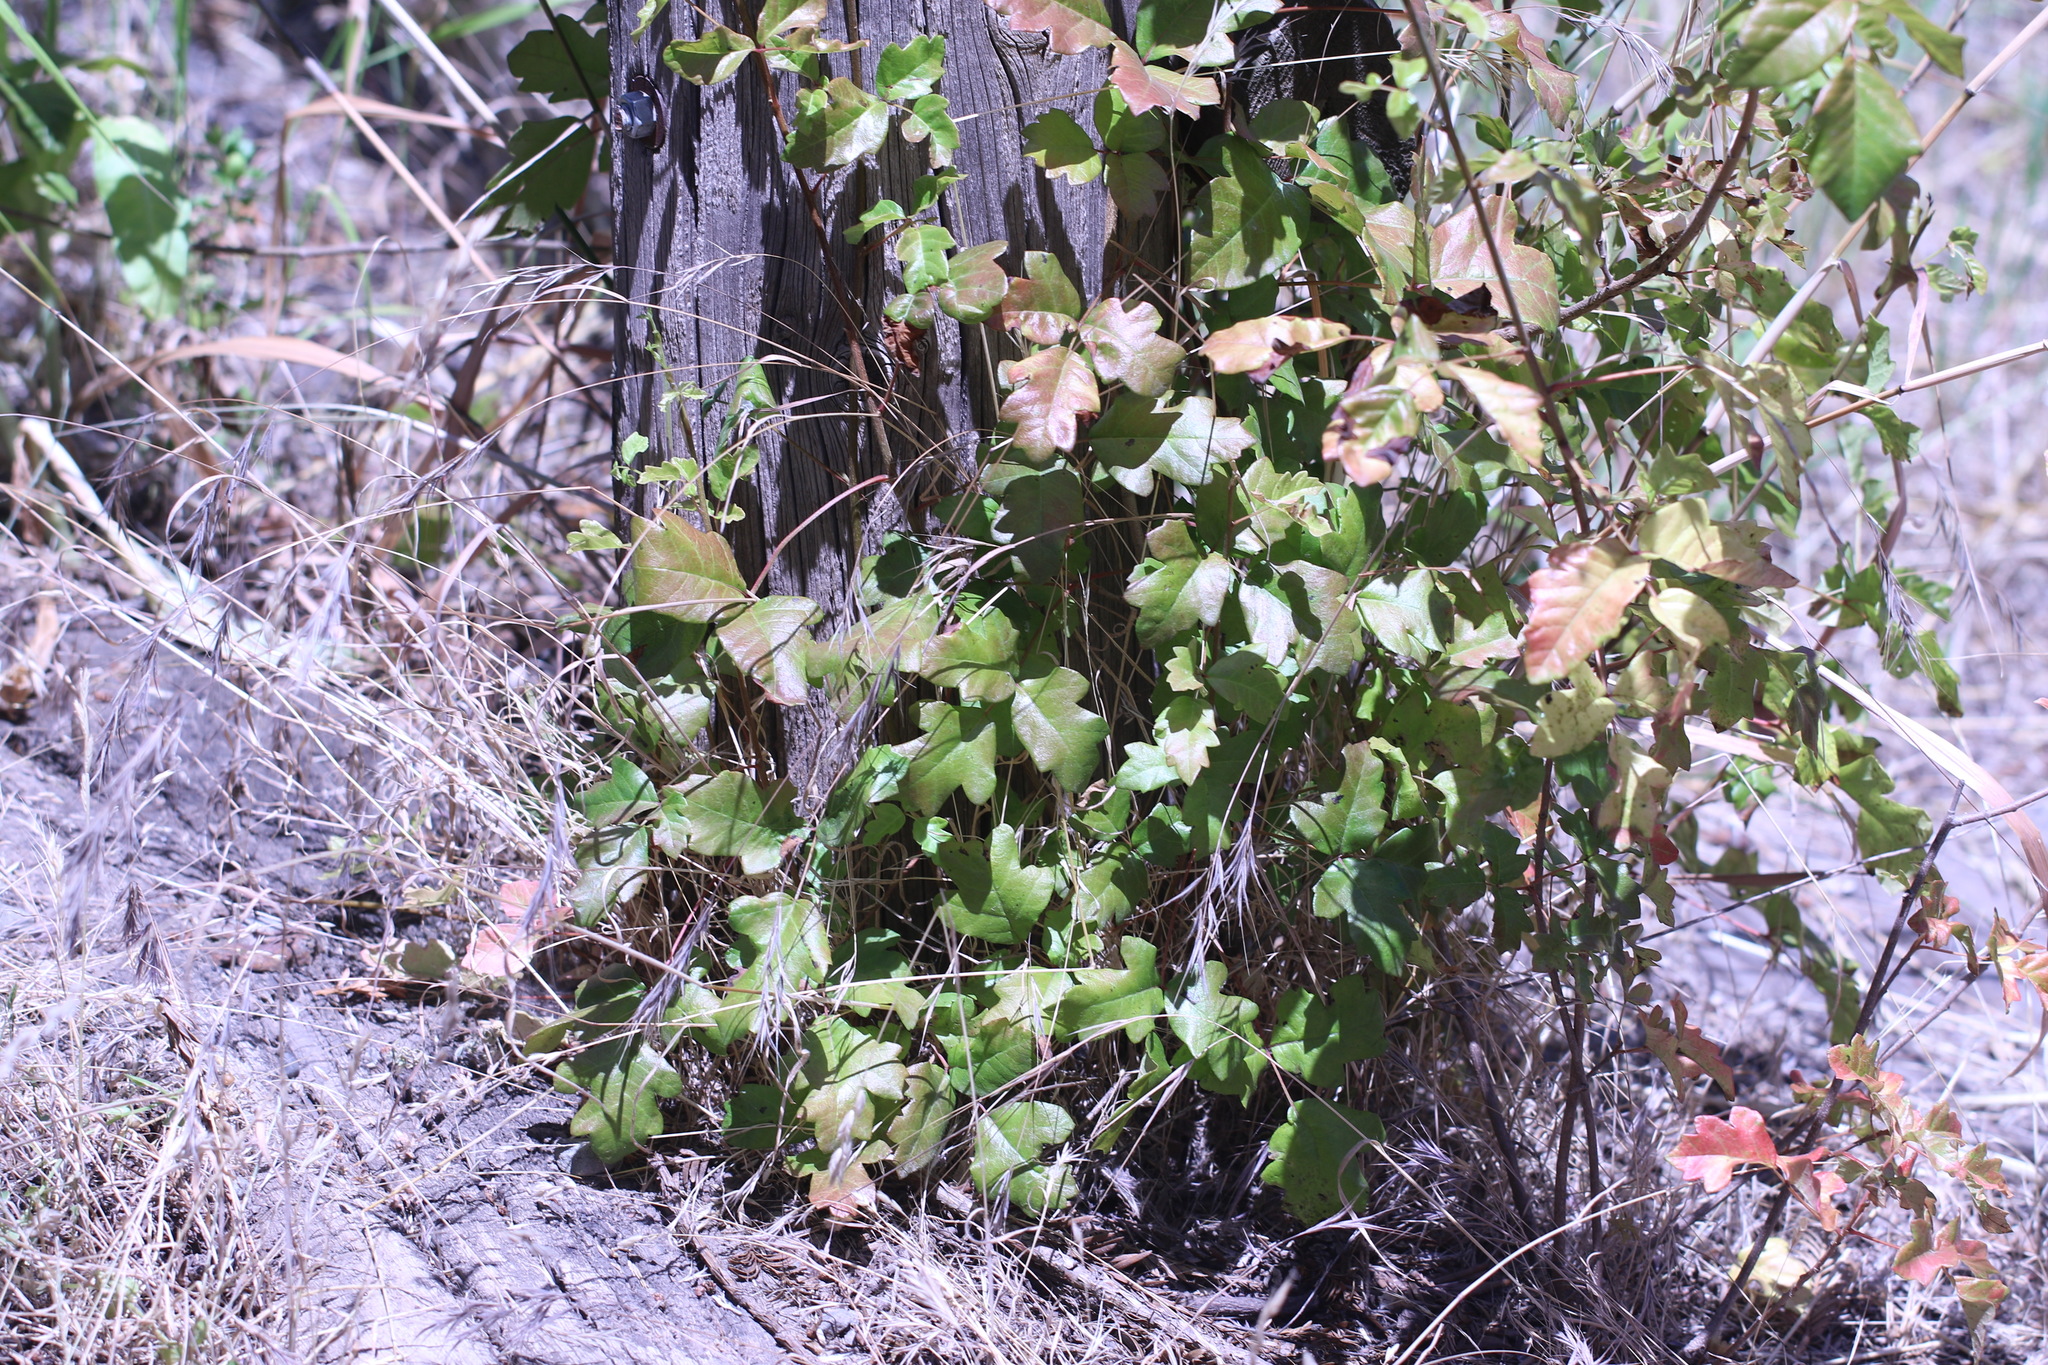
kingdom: Plantae
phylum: Tracheophyta
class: Magnoliopsida
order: Sapindales
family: Anacardiaceae
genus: Toxicodendron
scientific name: Toxicodendron diversilobum
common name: Pacific poison-oak
